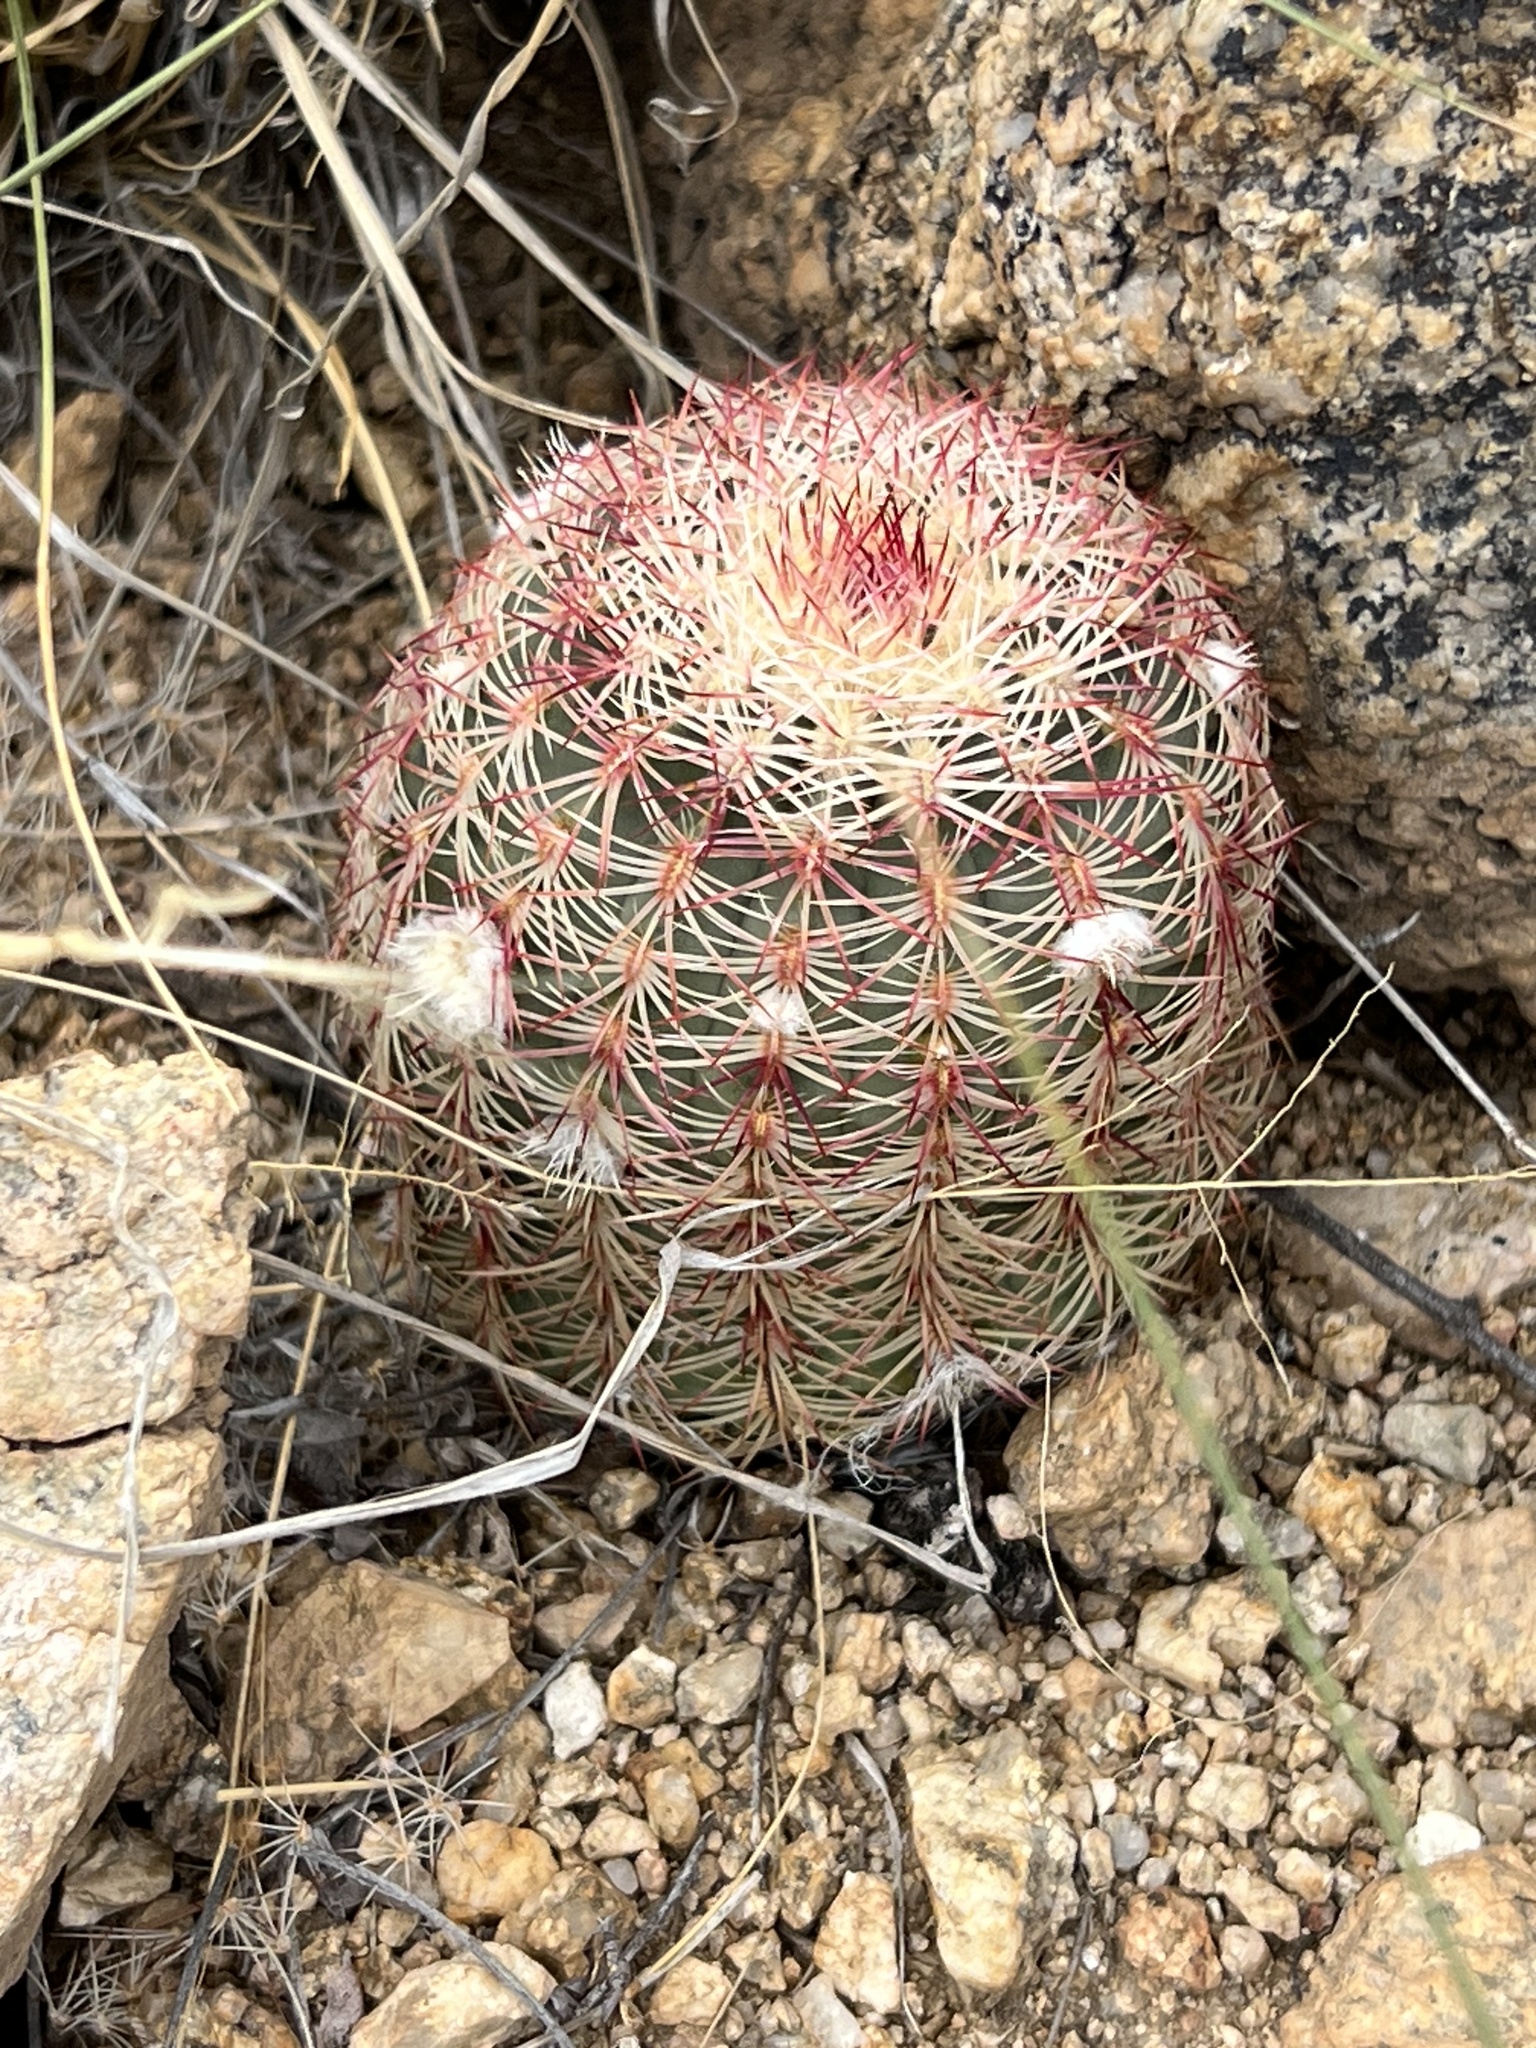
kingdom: Plantae
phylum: Tracheophyta
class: Magnoliopsida
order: Caryophyllales
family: Cactaceae
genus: Echinocereus
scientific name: Echinocereus rigidissimus
